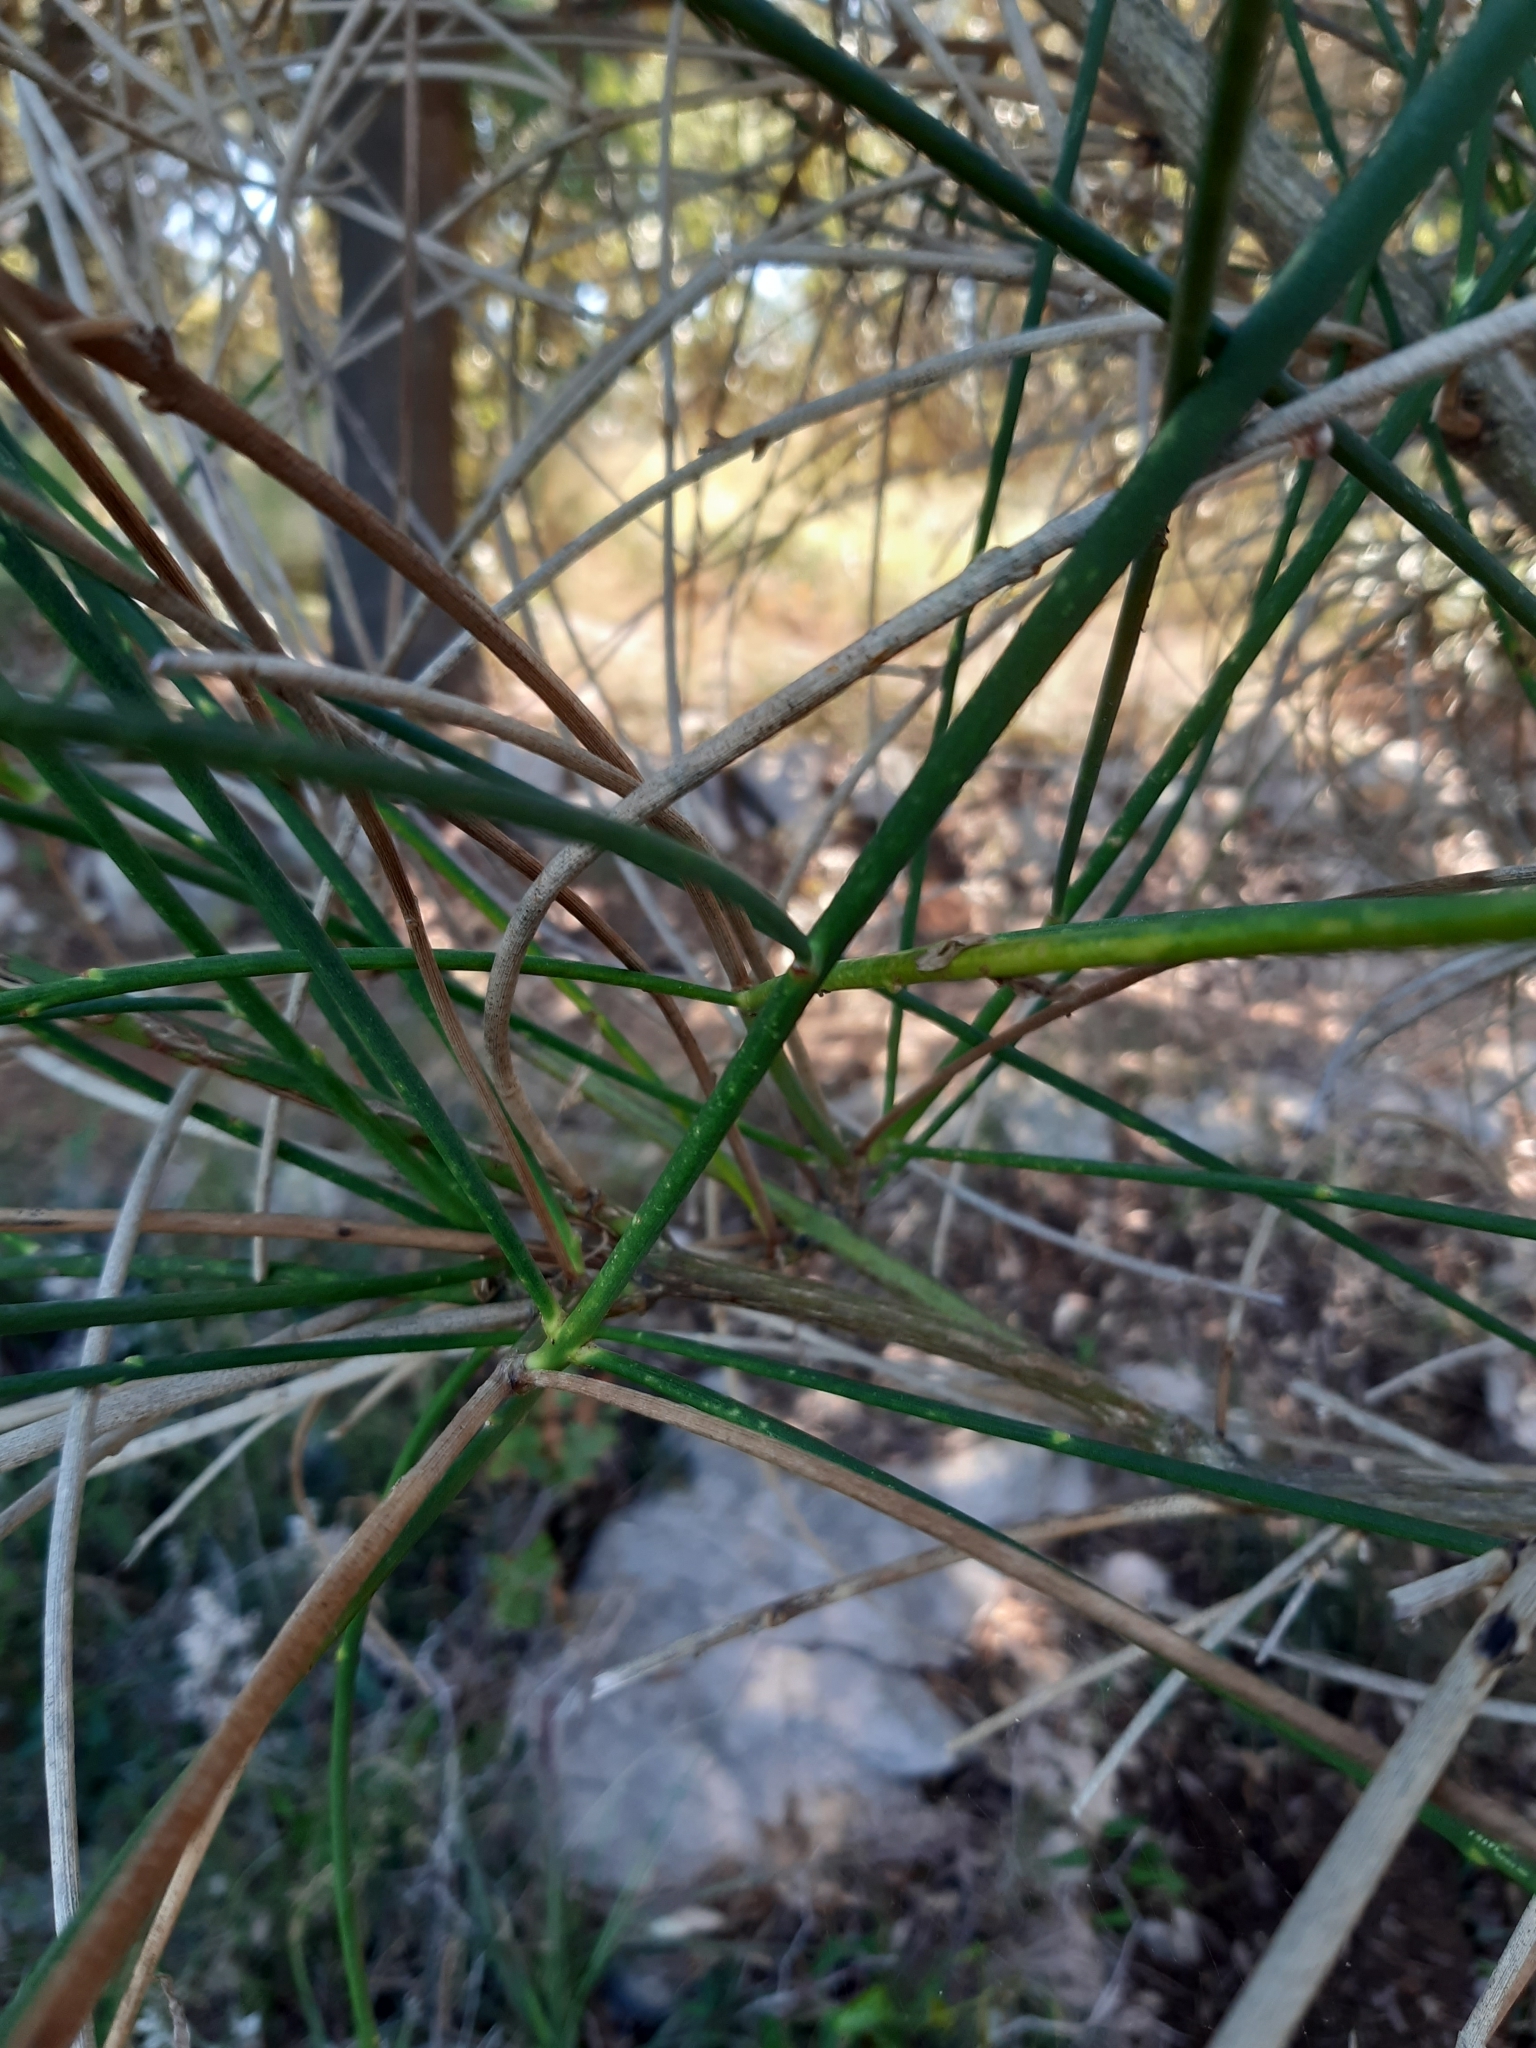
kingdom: Plantae
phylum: Tracheophyta
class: Magnoliopsida
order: Fabales
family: Fabaceae
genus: Spartium
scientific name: Spartium junceum
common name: Spanish broom
